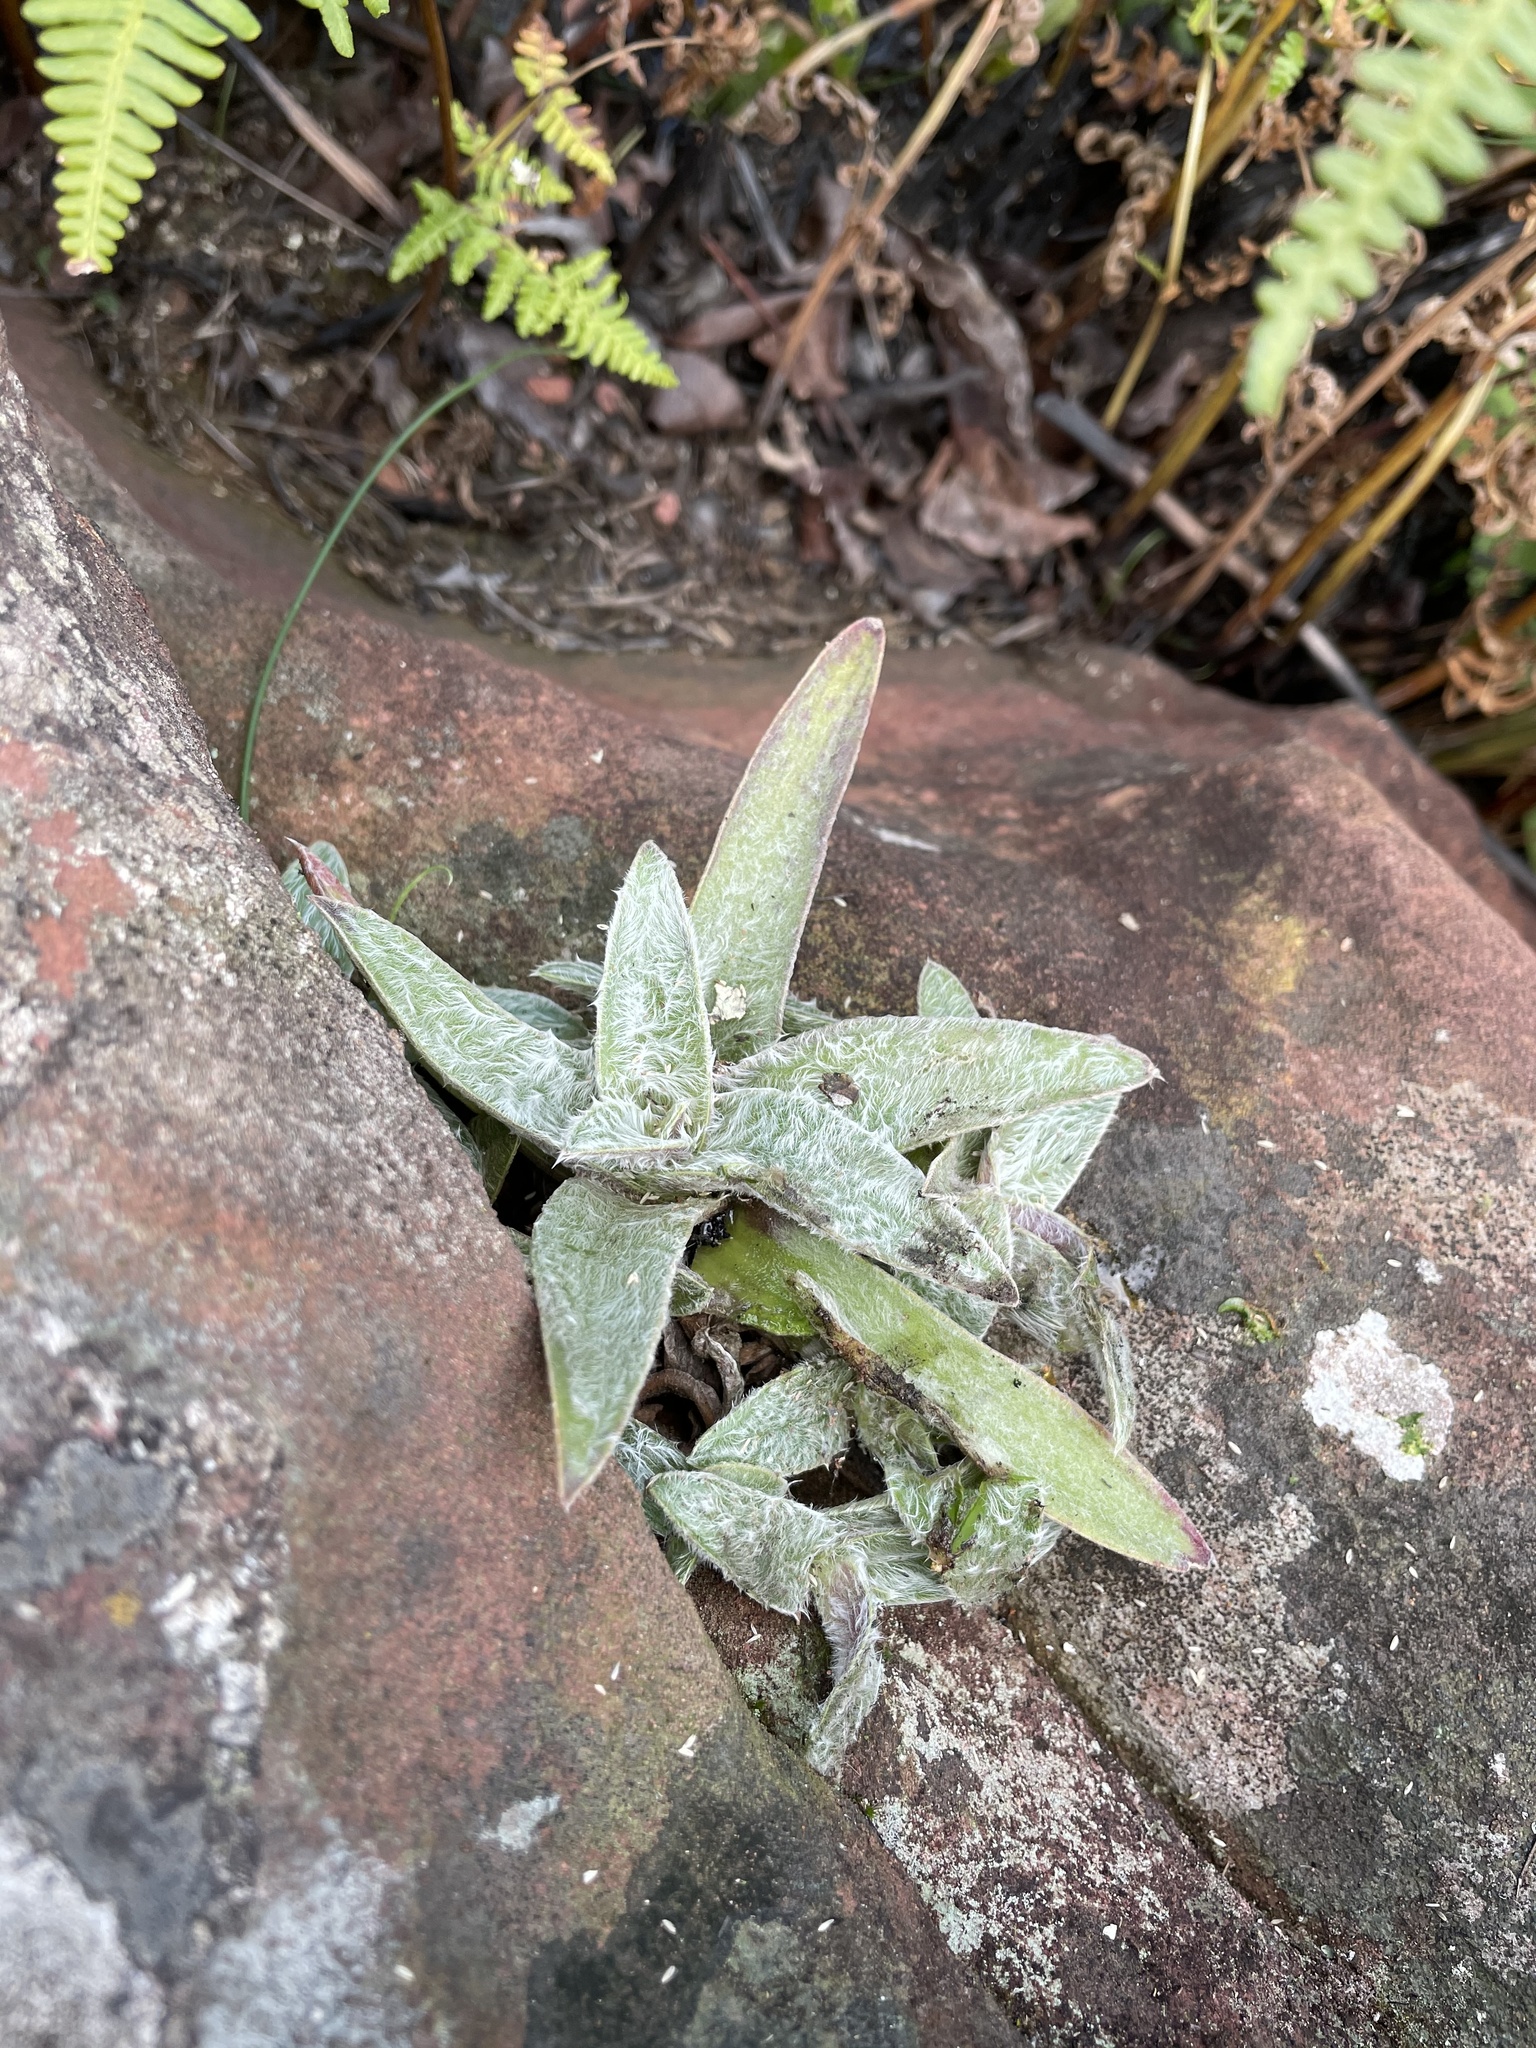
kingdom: Plantae
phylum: Tracheophyta
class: Liliopsida
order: Commelinales
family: Commelinaceae
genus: Cyanotis
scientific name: Cyanotis lapidosa
